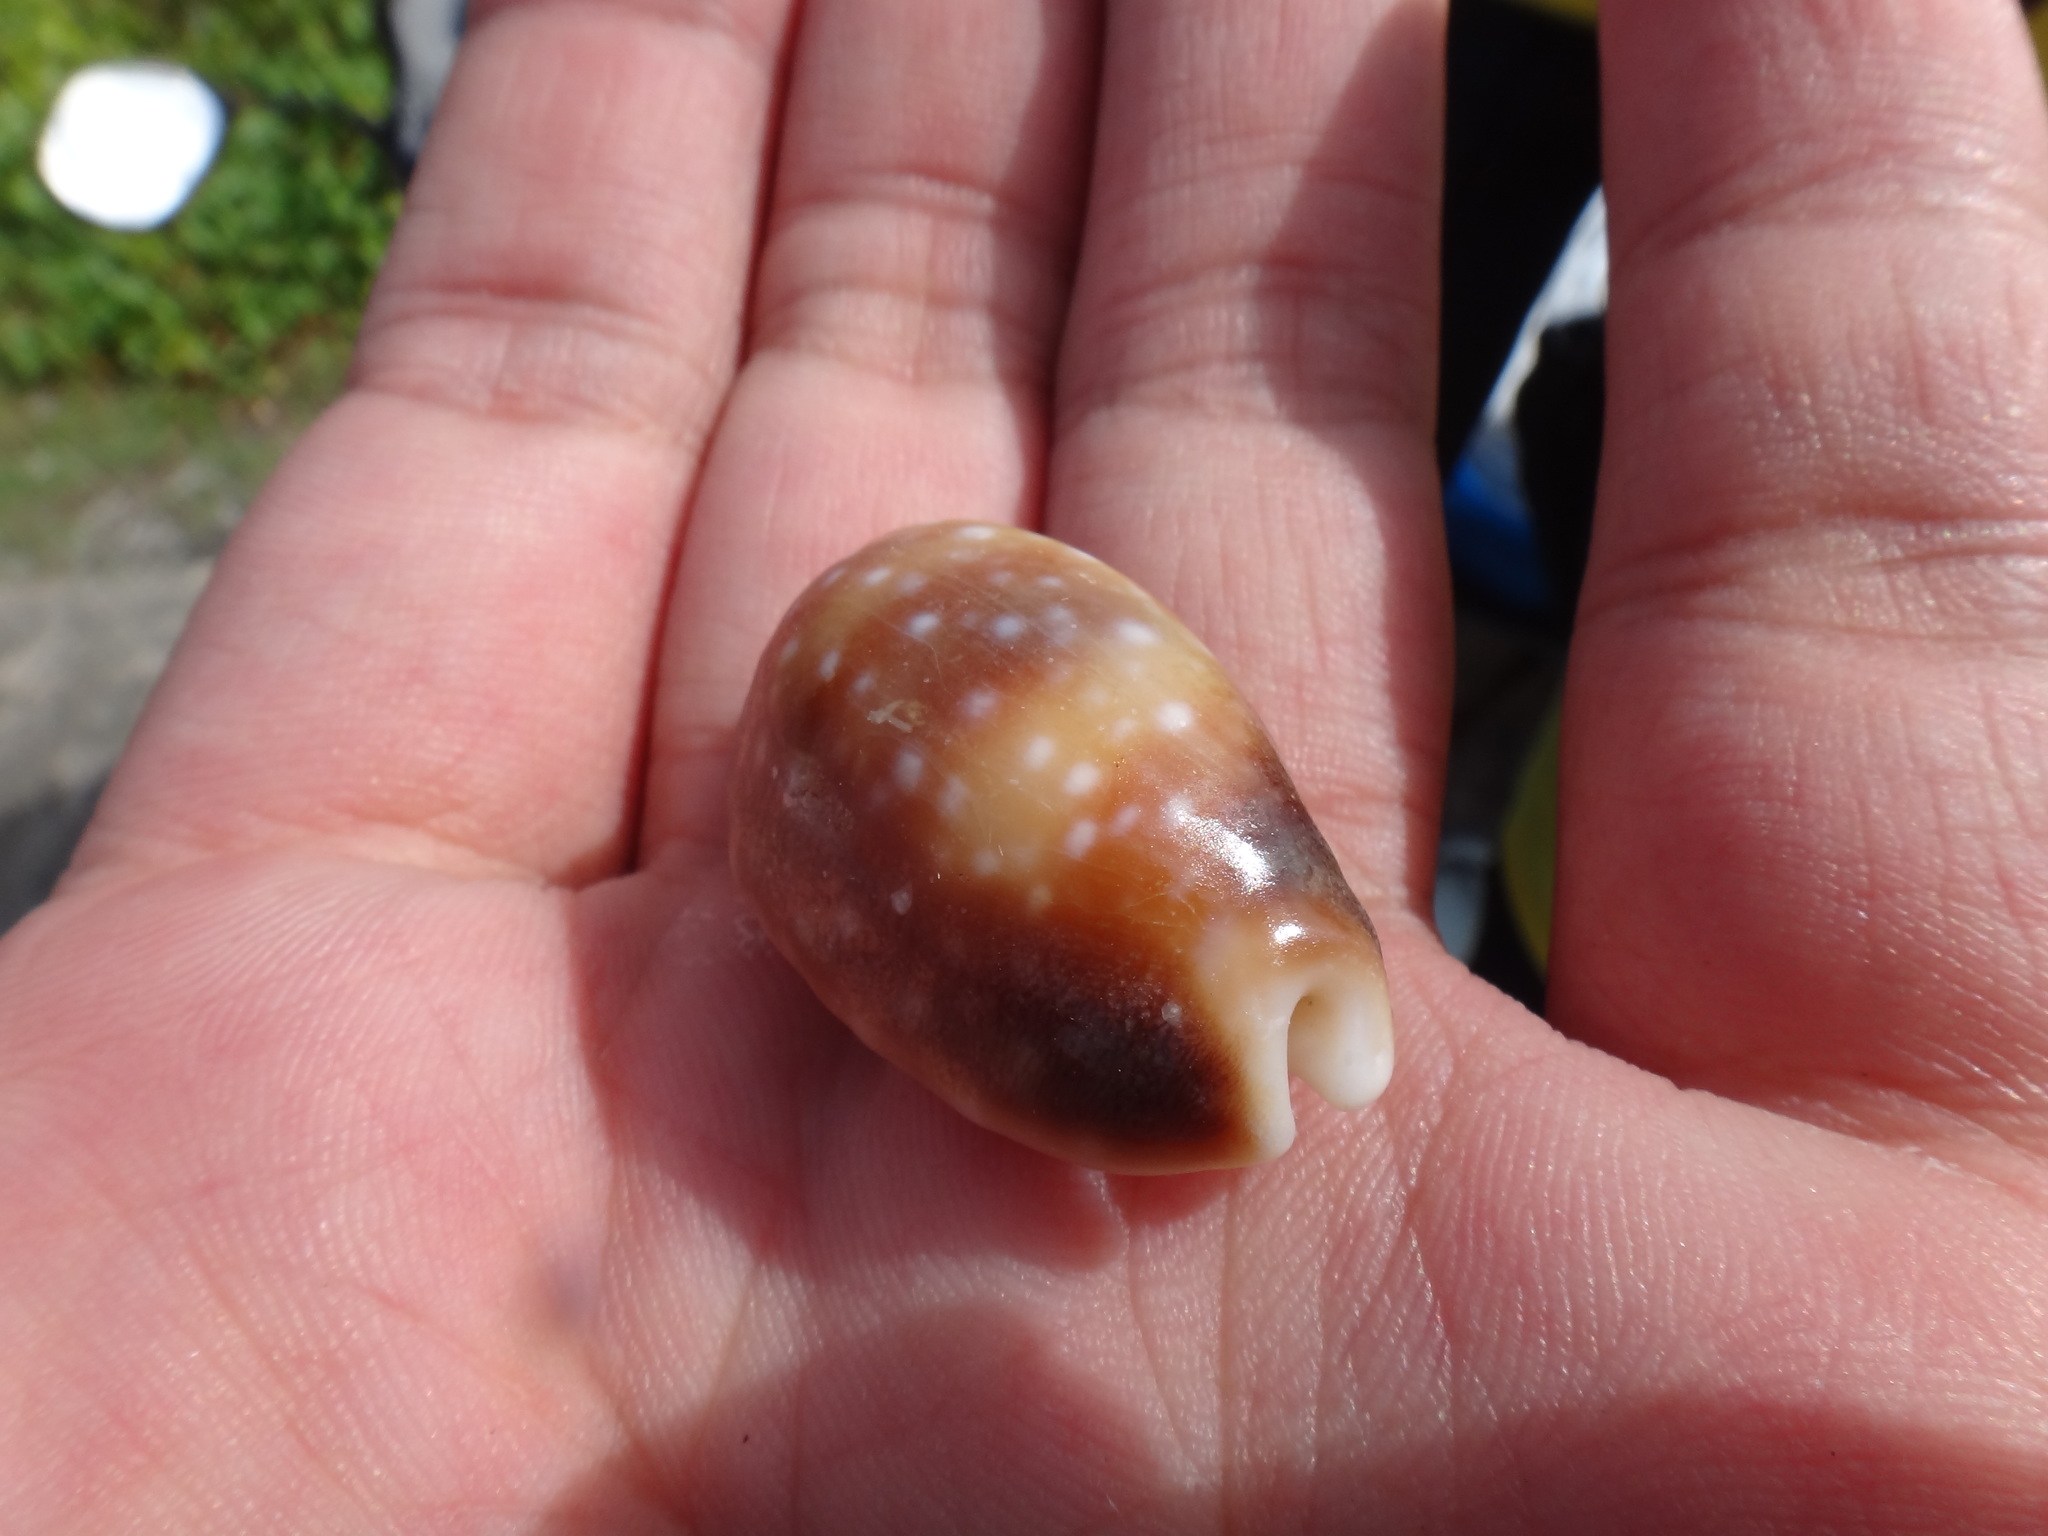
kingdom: Animalia
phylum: Mollusca
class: Gastropoda
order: Littorinimorpha
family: Cypraeidae
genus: Lyncina
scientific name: Lyncina vitellus
